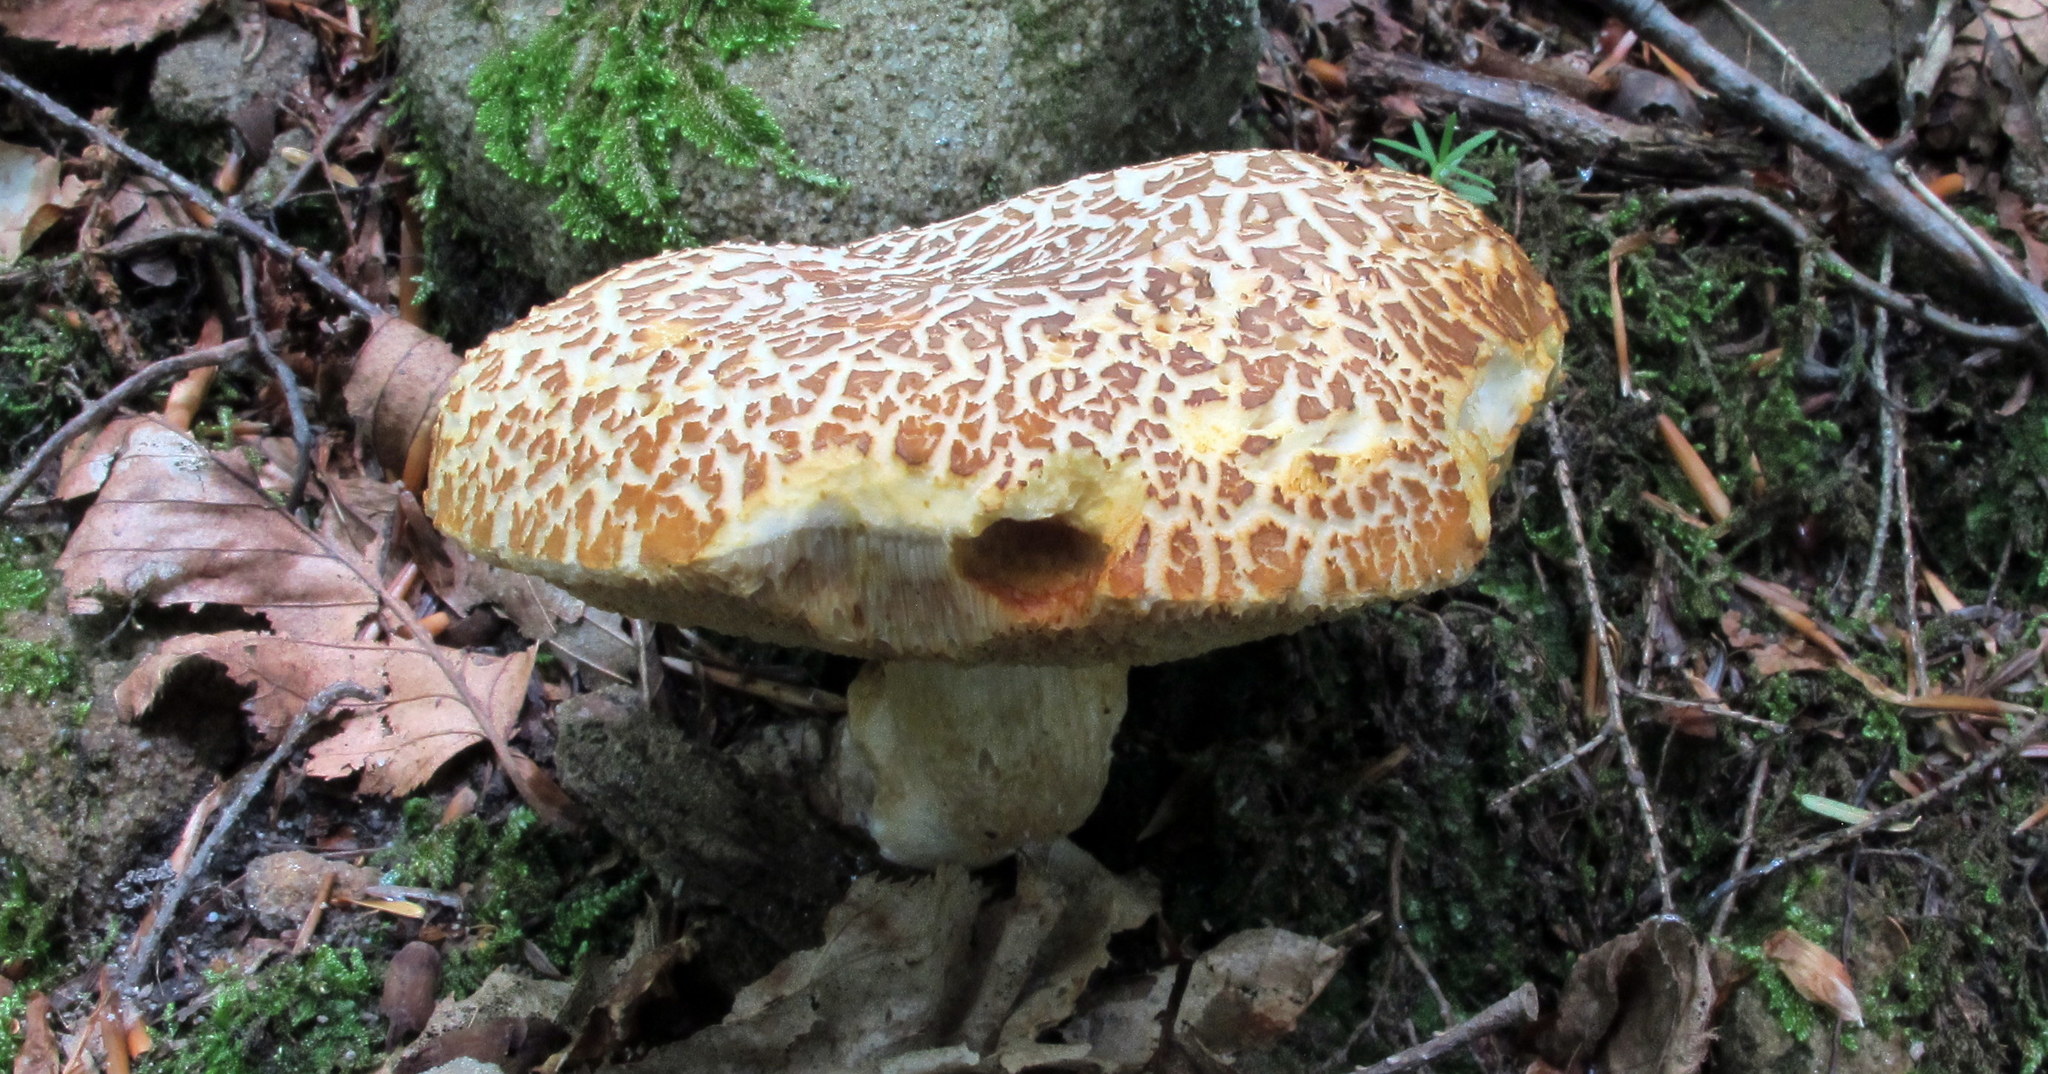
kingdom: Fungi
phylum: Basidiomycota
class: Agaricomycetes
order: Boletales
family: Boletaceae
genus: Xanthoconium
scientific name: Xanthoconium affine
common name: Spotted bolete
